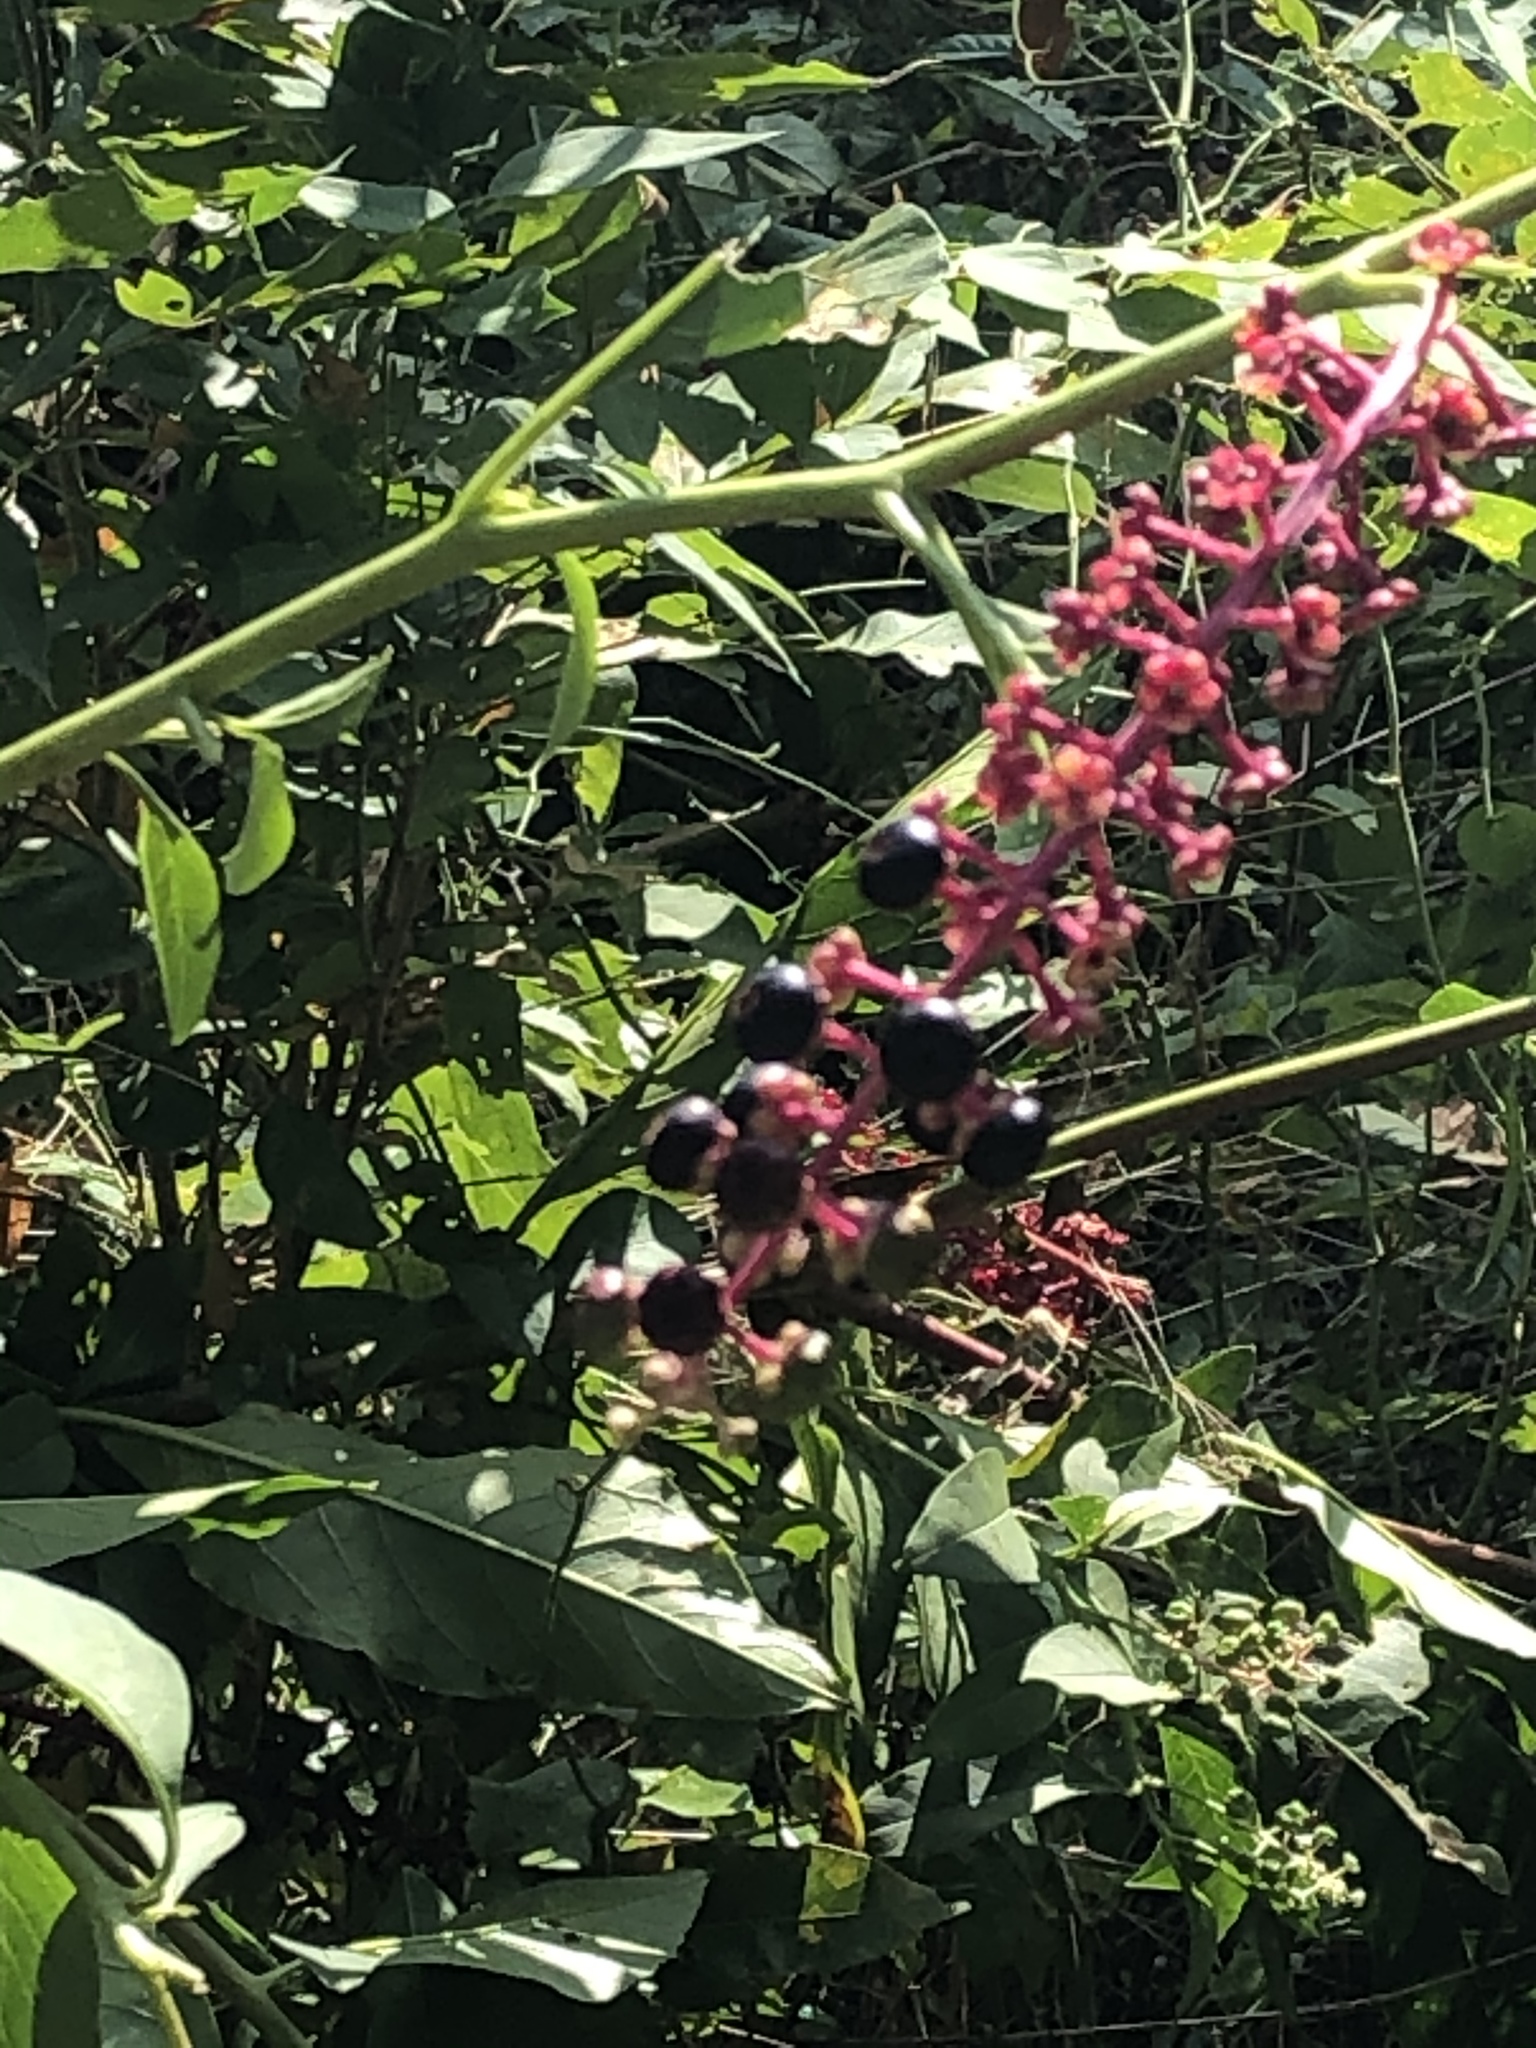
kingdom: Plantae
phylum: Tracheophyta
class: Magnoliopsida
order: Caryophyllales
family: Phytolaccaceae
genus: Phytolacca
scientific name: Phytolacca americana
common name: American pokeweed
